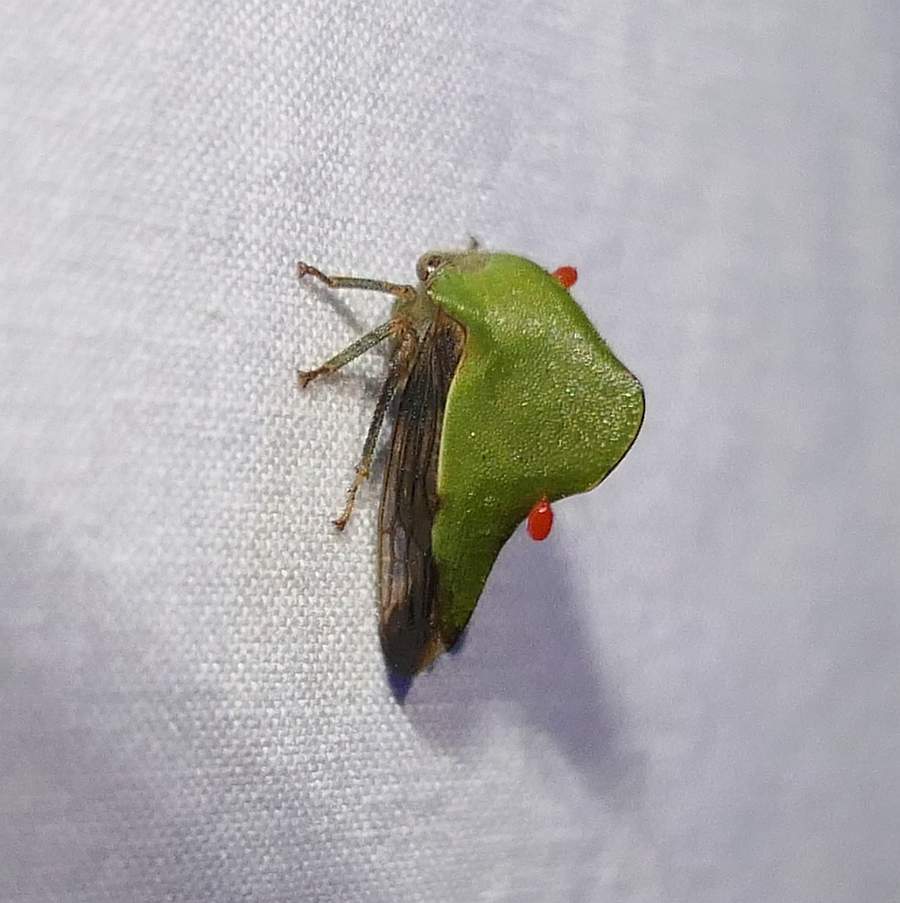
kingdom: Animalia
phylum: Arthropoda
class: Insecta
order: Hemiptera
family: Membracidae
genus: Helonica
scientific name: Helonica excelsa
